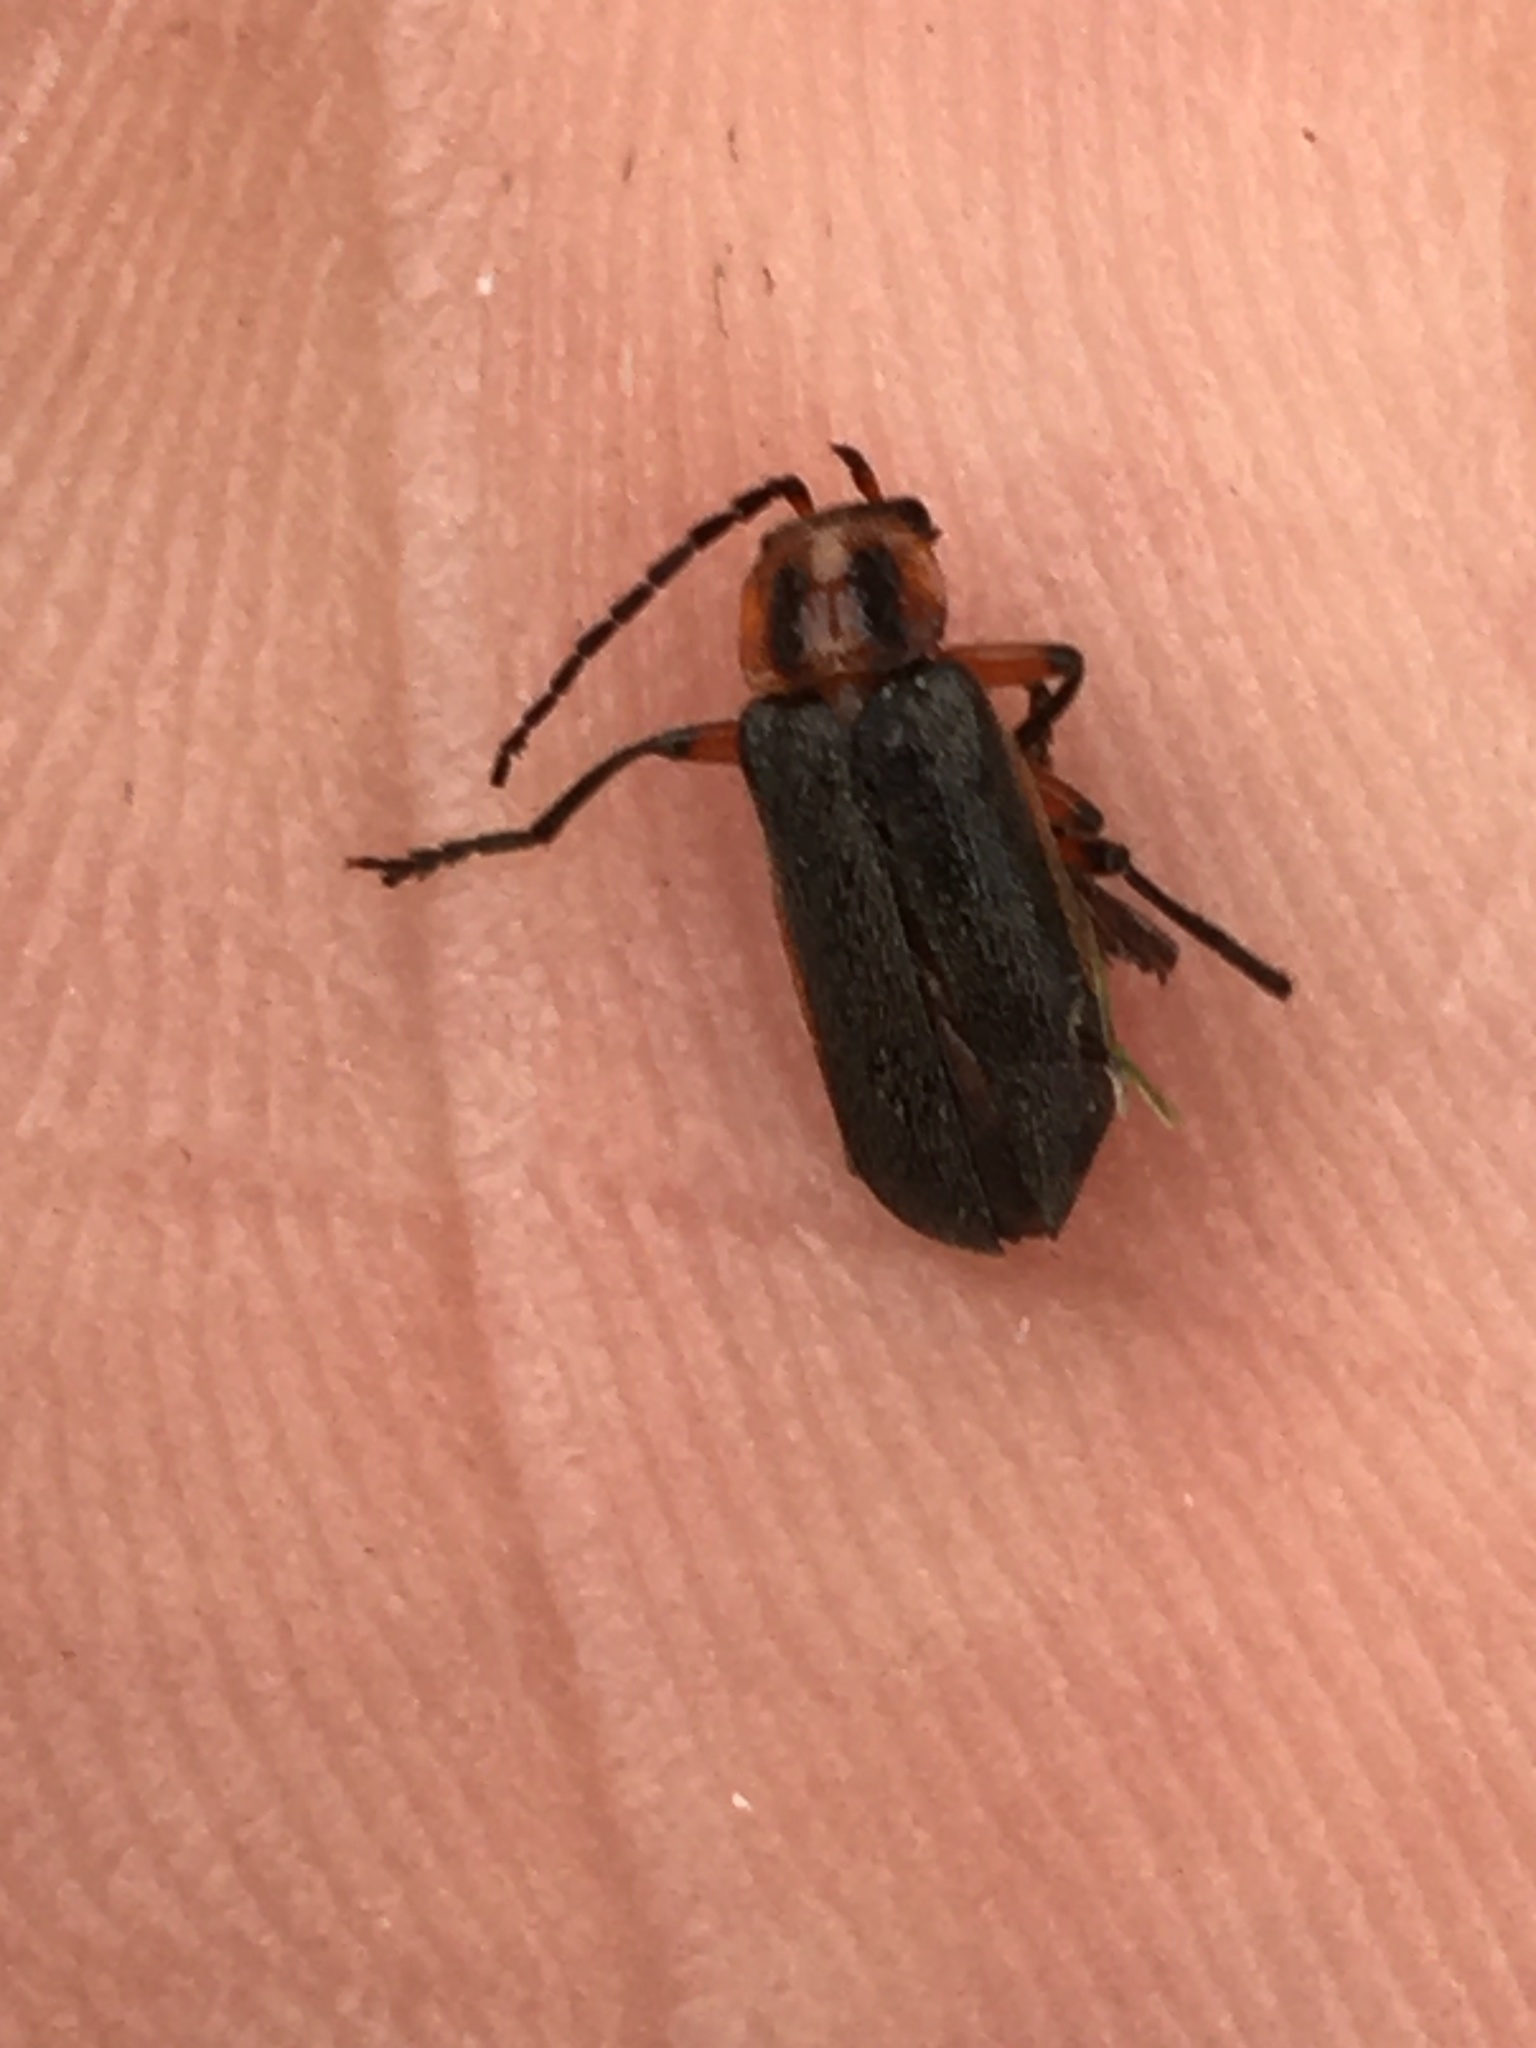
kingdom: Animalia
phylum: Arthropoda
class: Insecta
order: Coleoptera
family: Cantharidae
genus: Atalantycha
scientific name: Atalantycha bilineata
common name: Two-lined leatherwing
